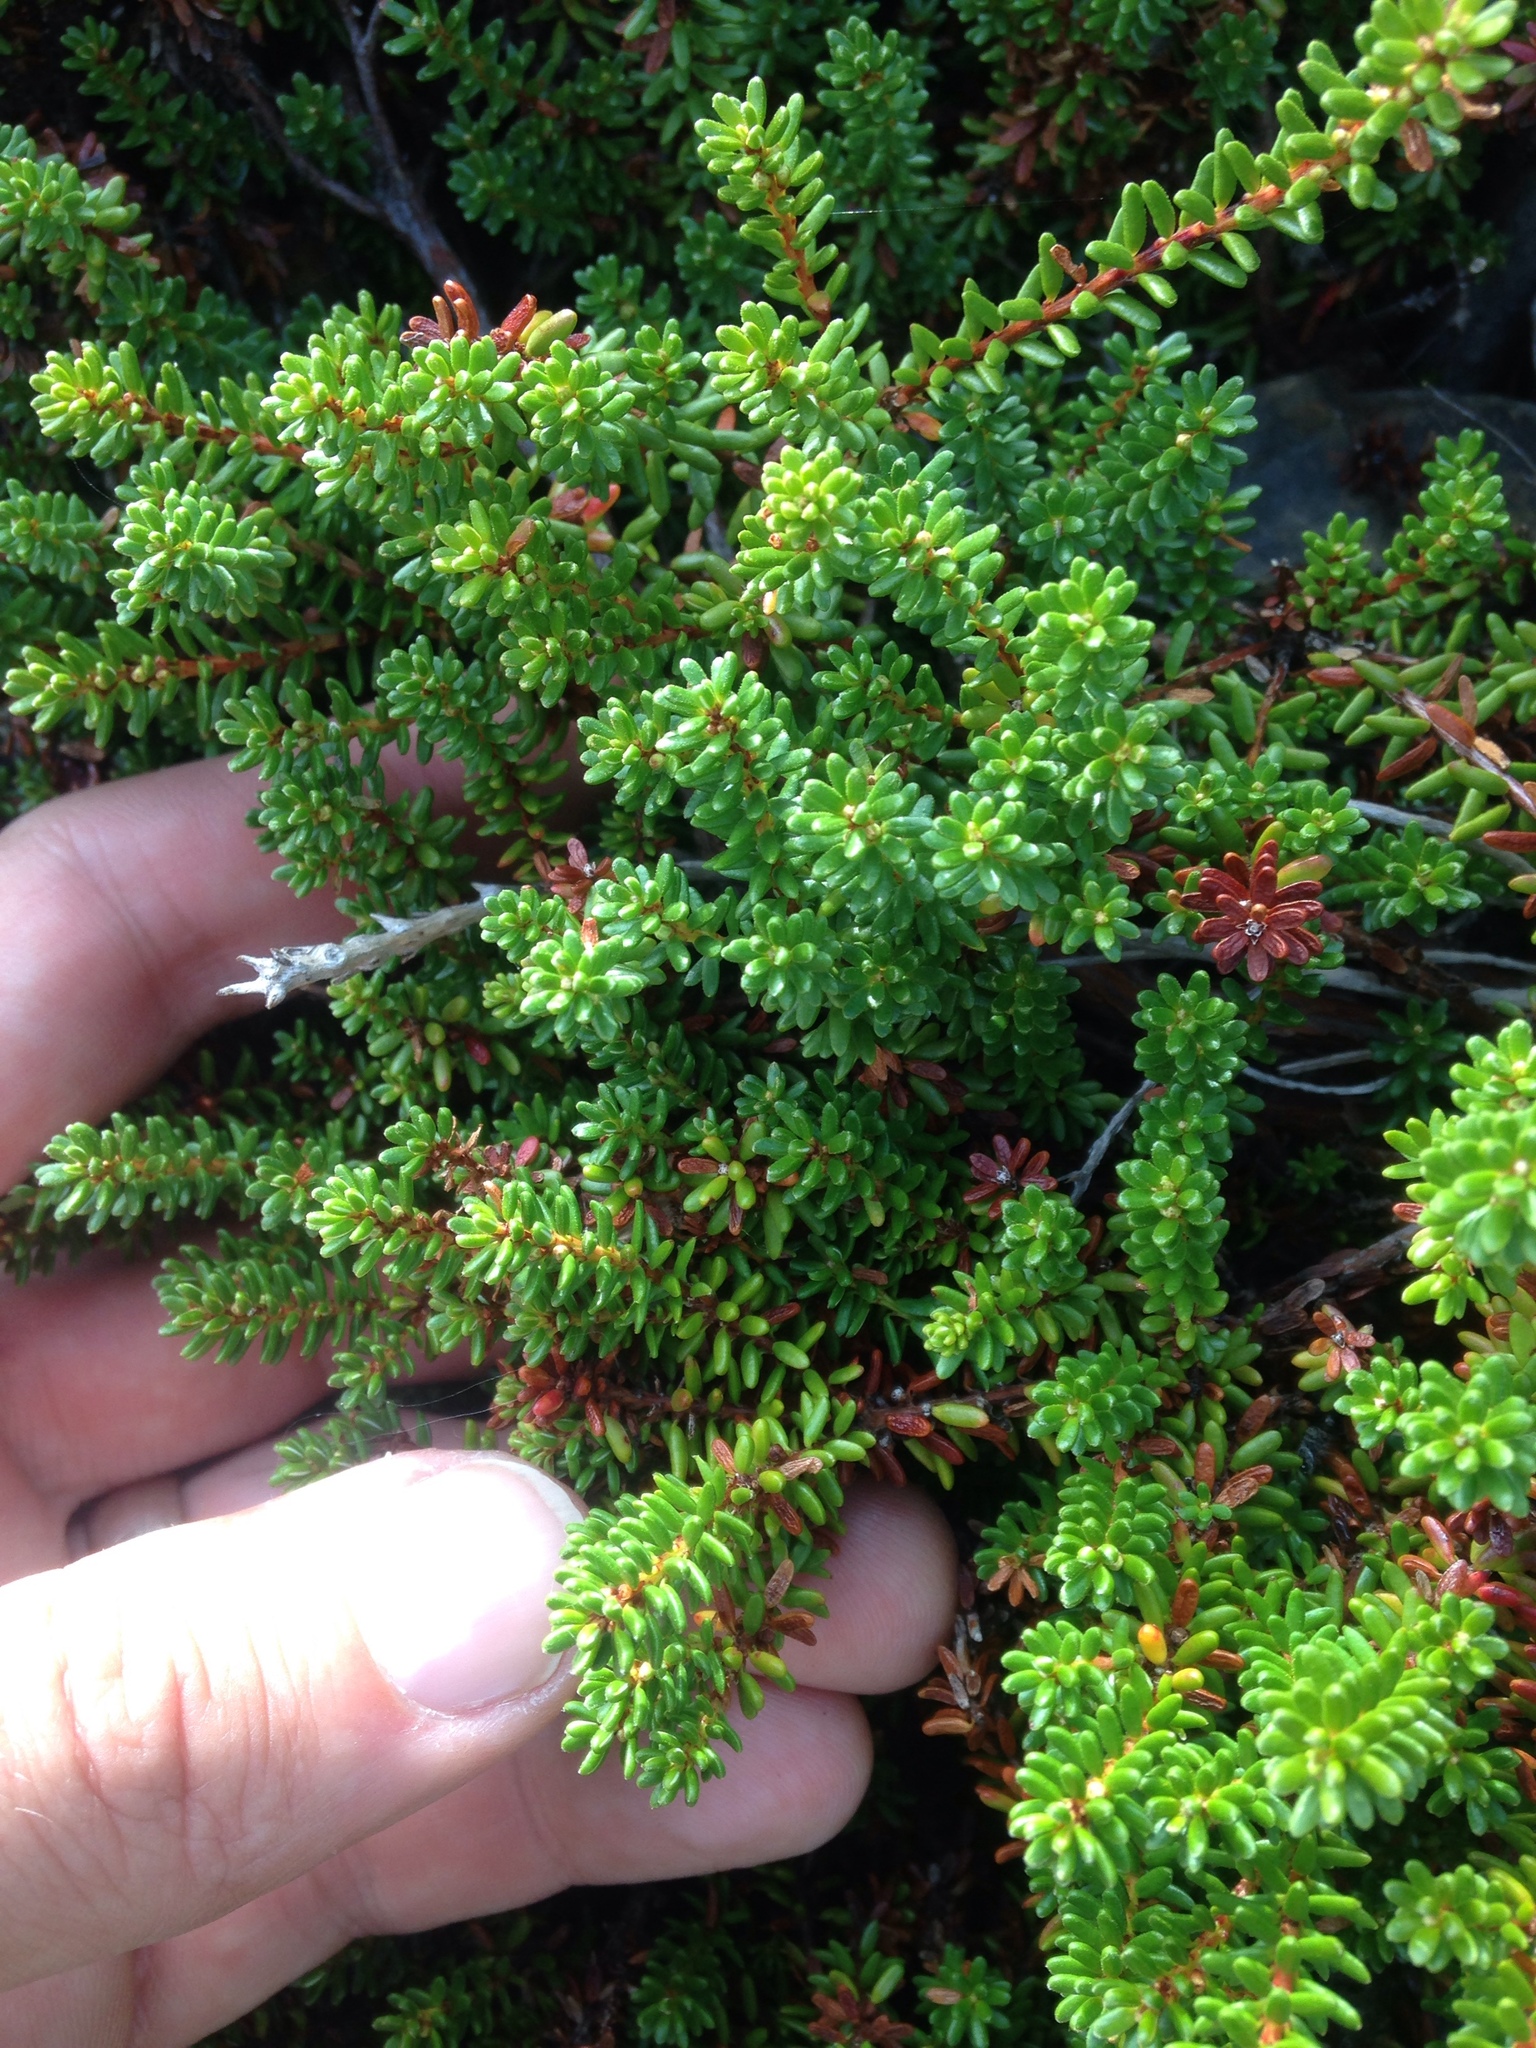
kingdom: Plantae
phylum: Tracheophyta
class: Magnoliopsida
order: Ericales
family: Ericaceae
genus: Empetrum
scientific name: Empetrum nigrum
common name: Black crowberry
